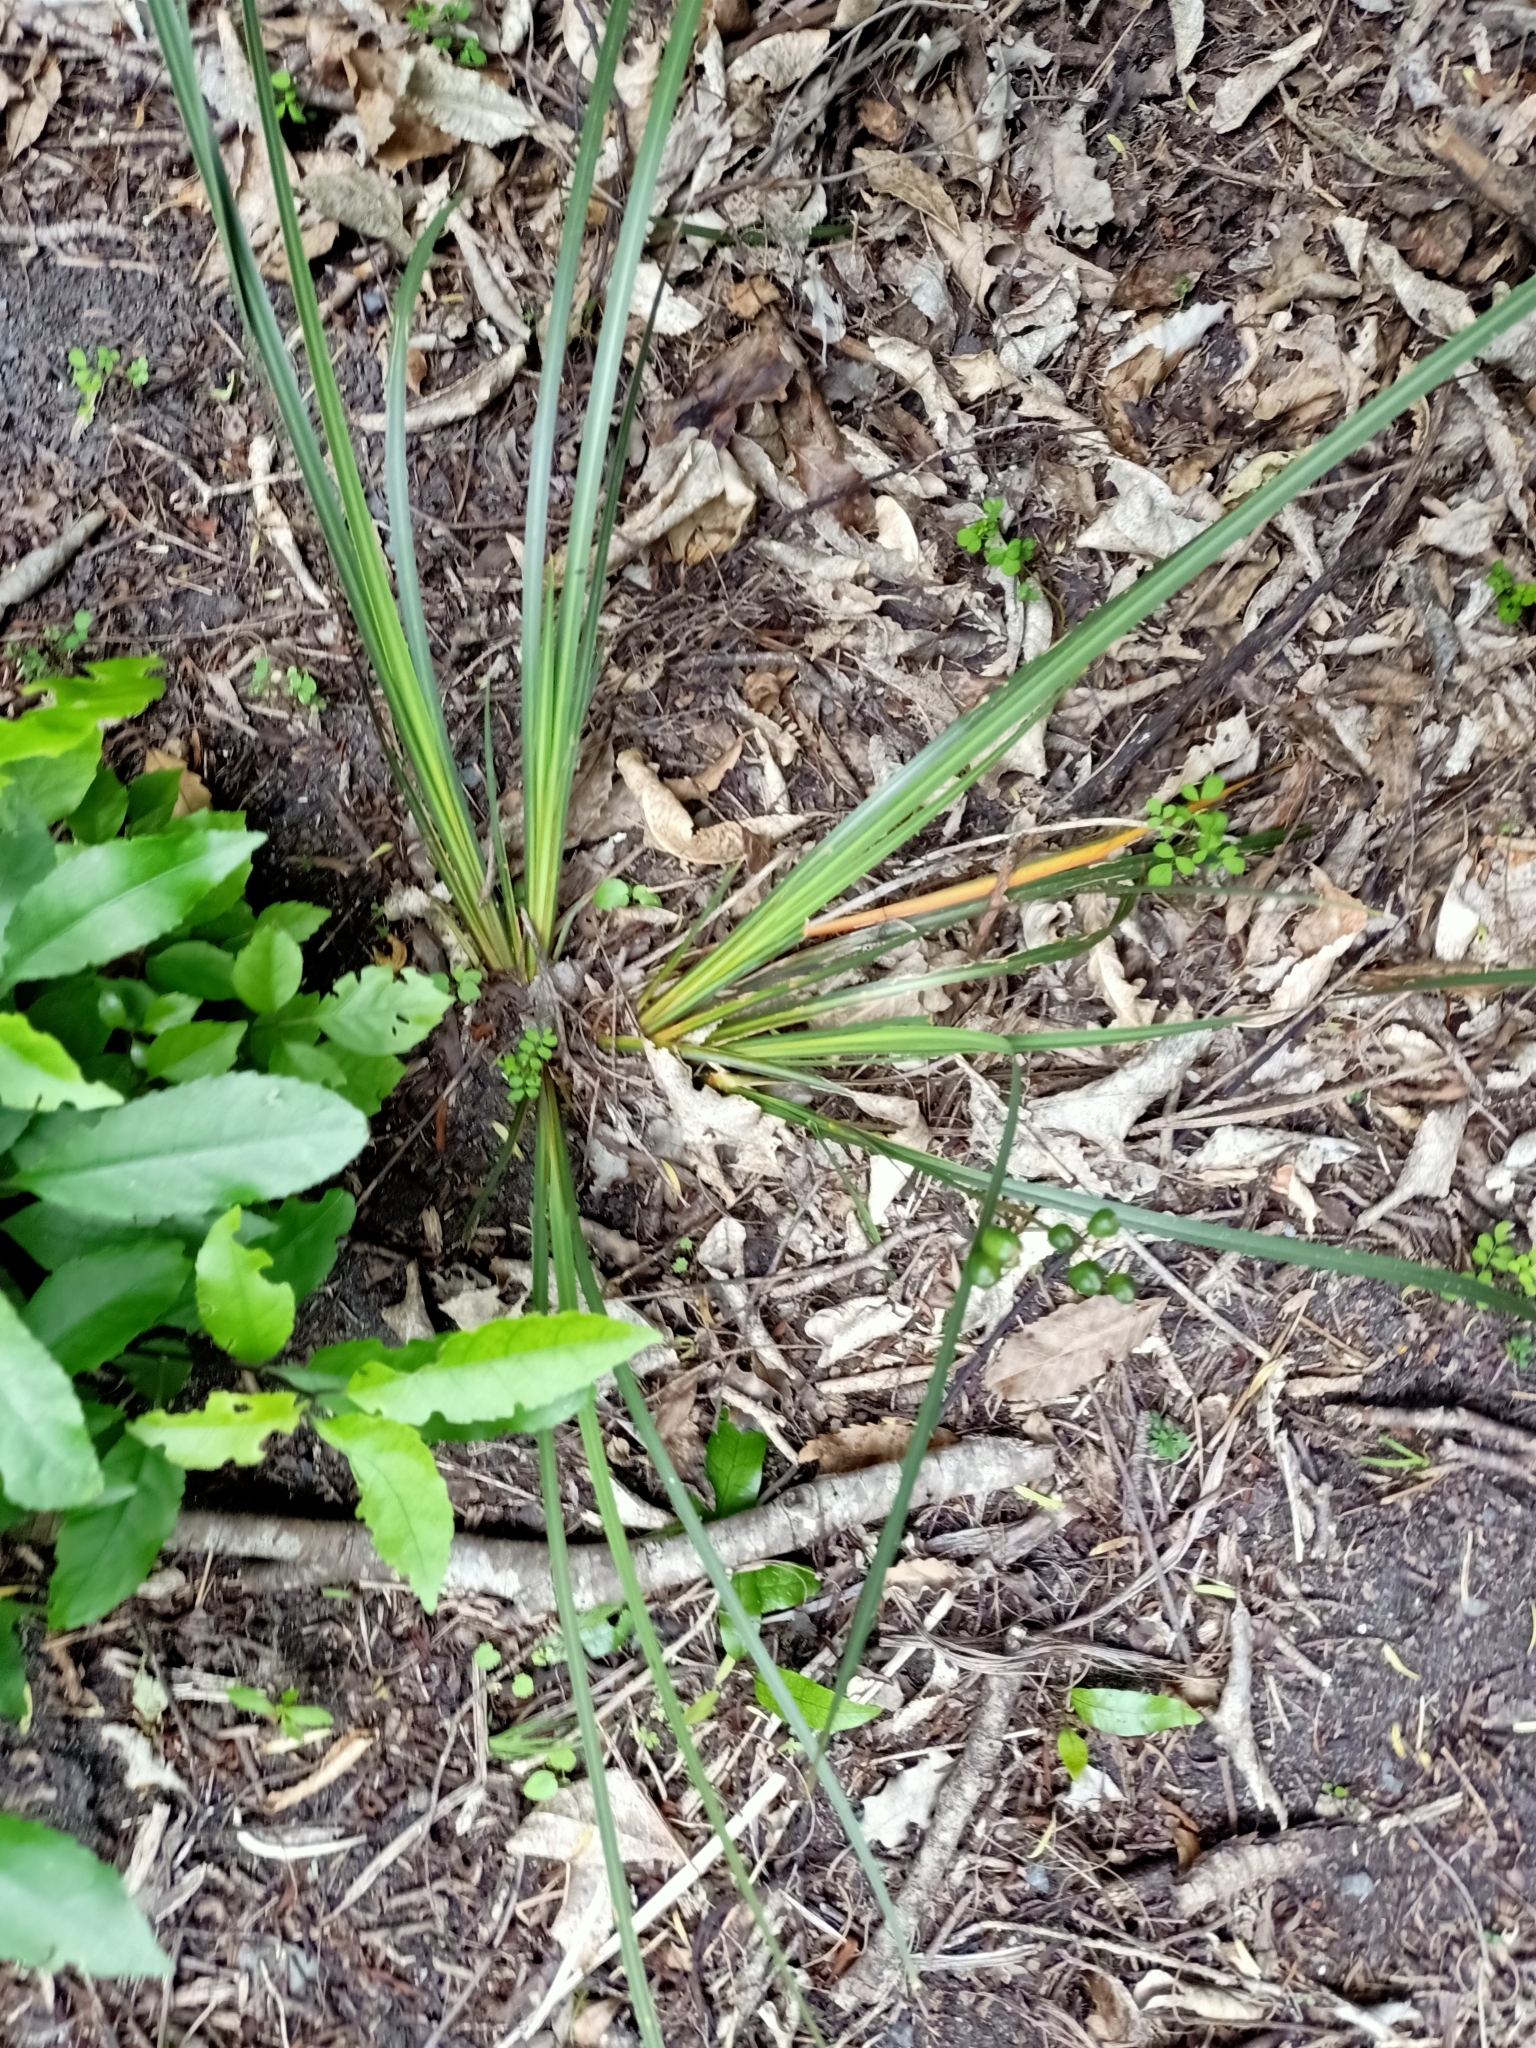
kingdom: Plantae
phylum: Tracheophyta
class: Liliopsida
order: Asparagales
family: Iridaceae
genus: Libertia
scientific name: Libertia ixioides
